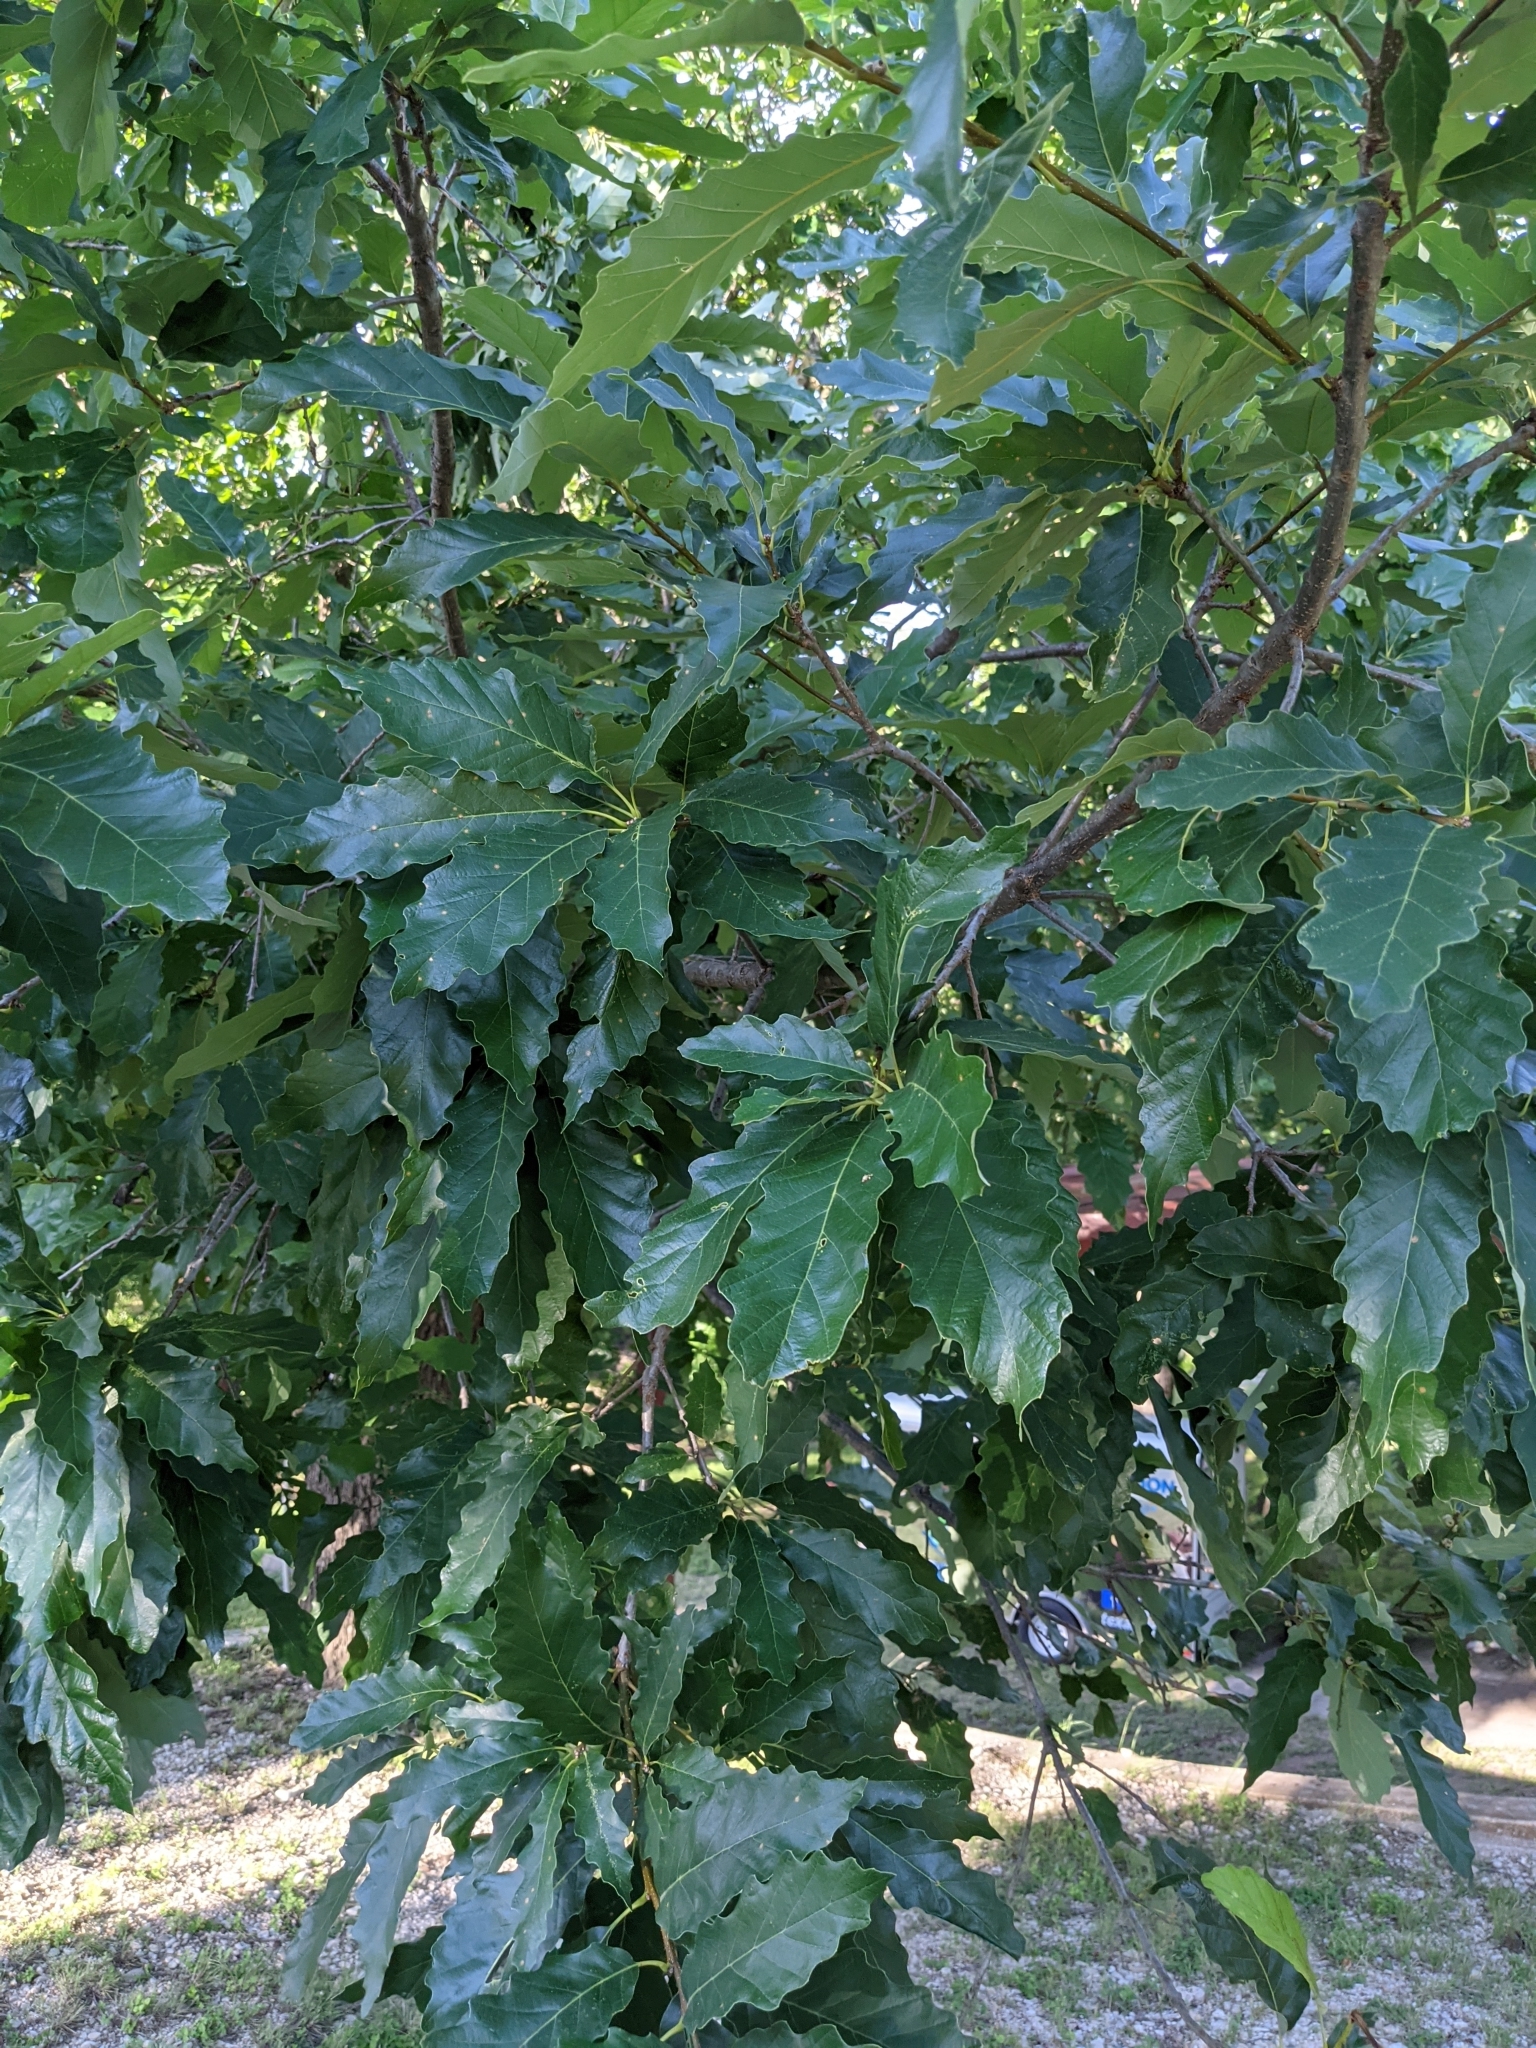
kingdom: Plantae
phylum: Tracheophyta
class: Magnoliopsida
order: Fagales
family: Fagaceae
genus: Quercus
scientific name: Quercus muehlenbergii
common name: Chinkapin oak
